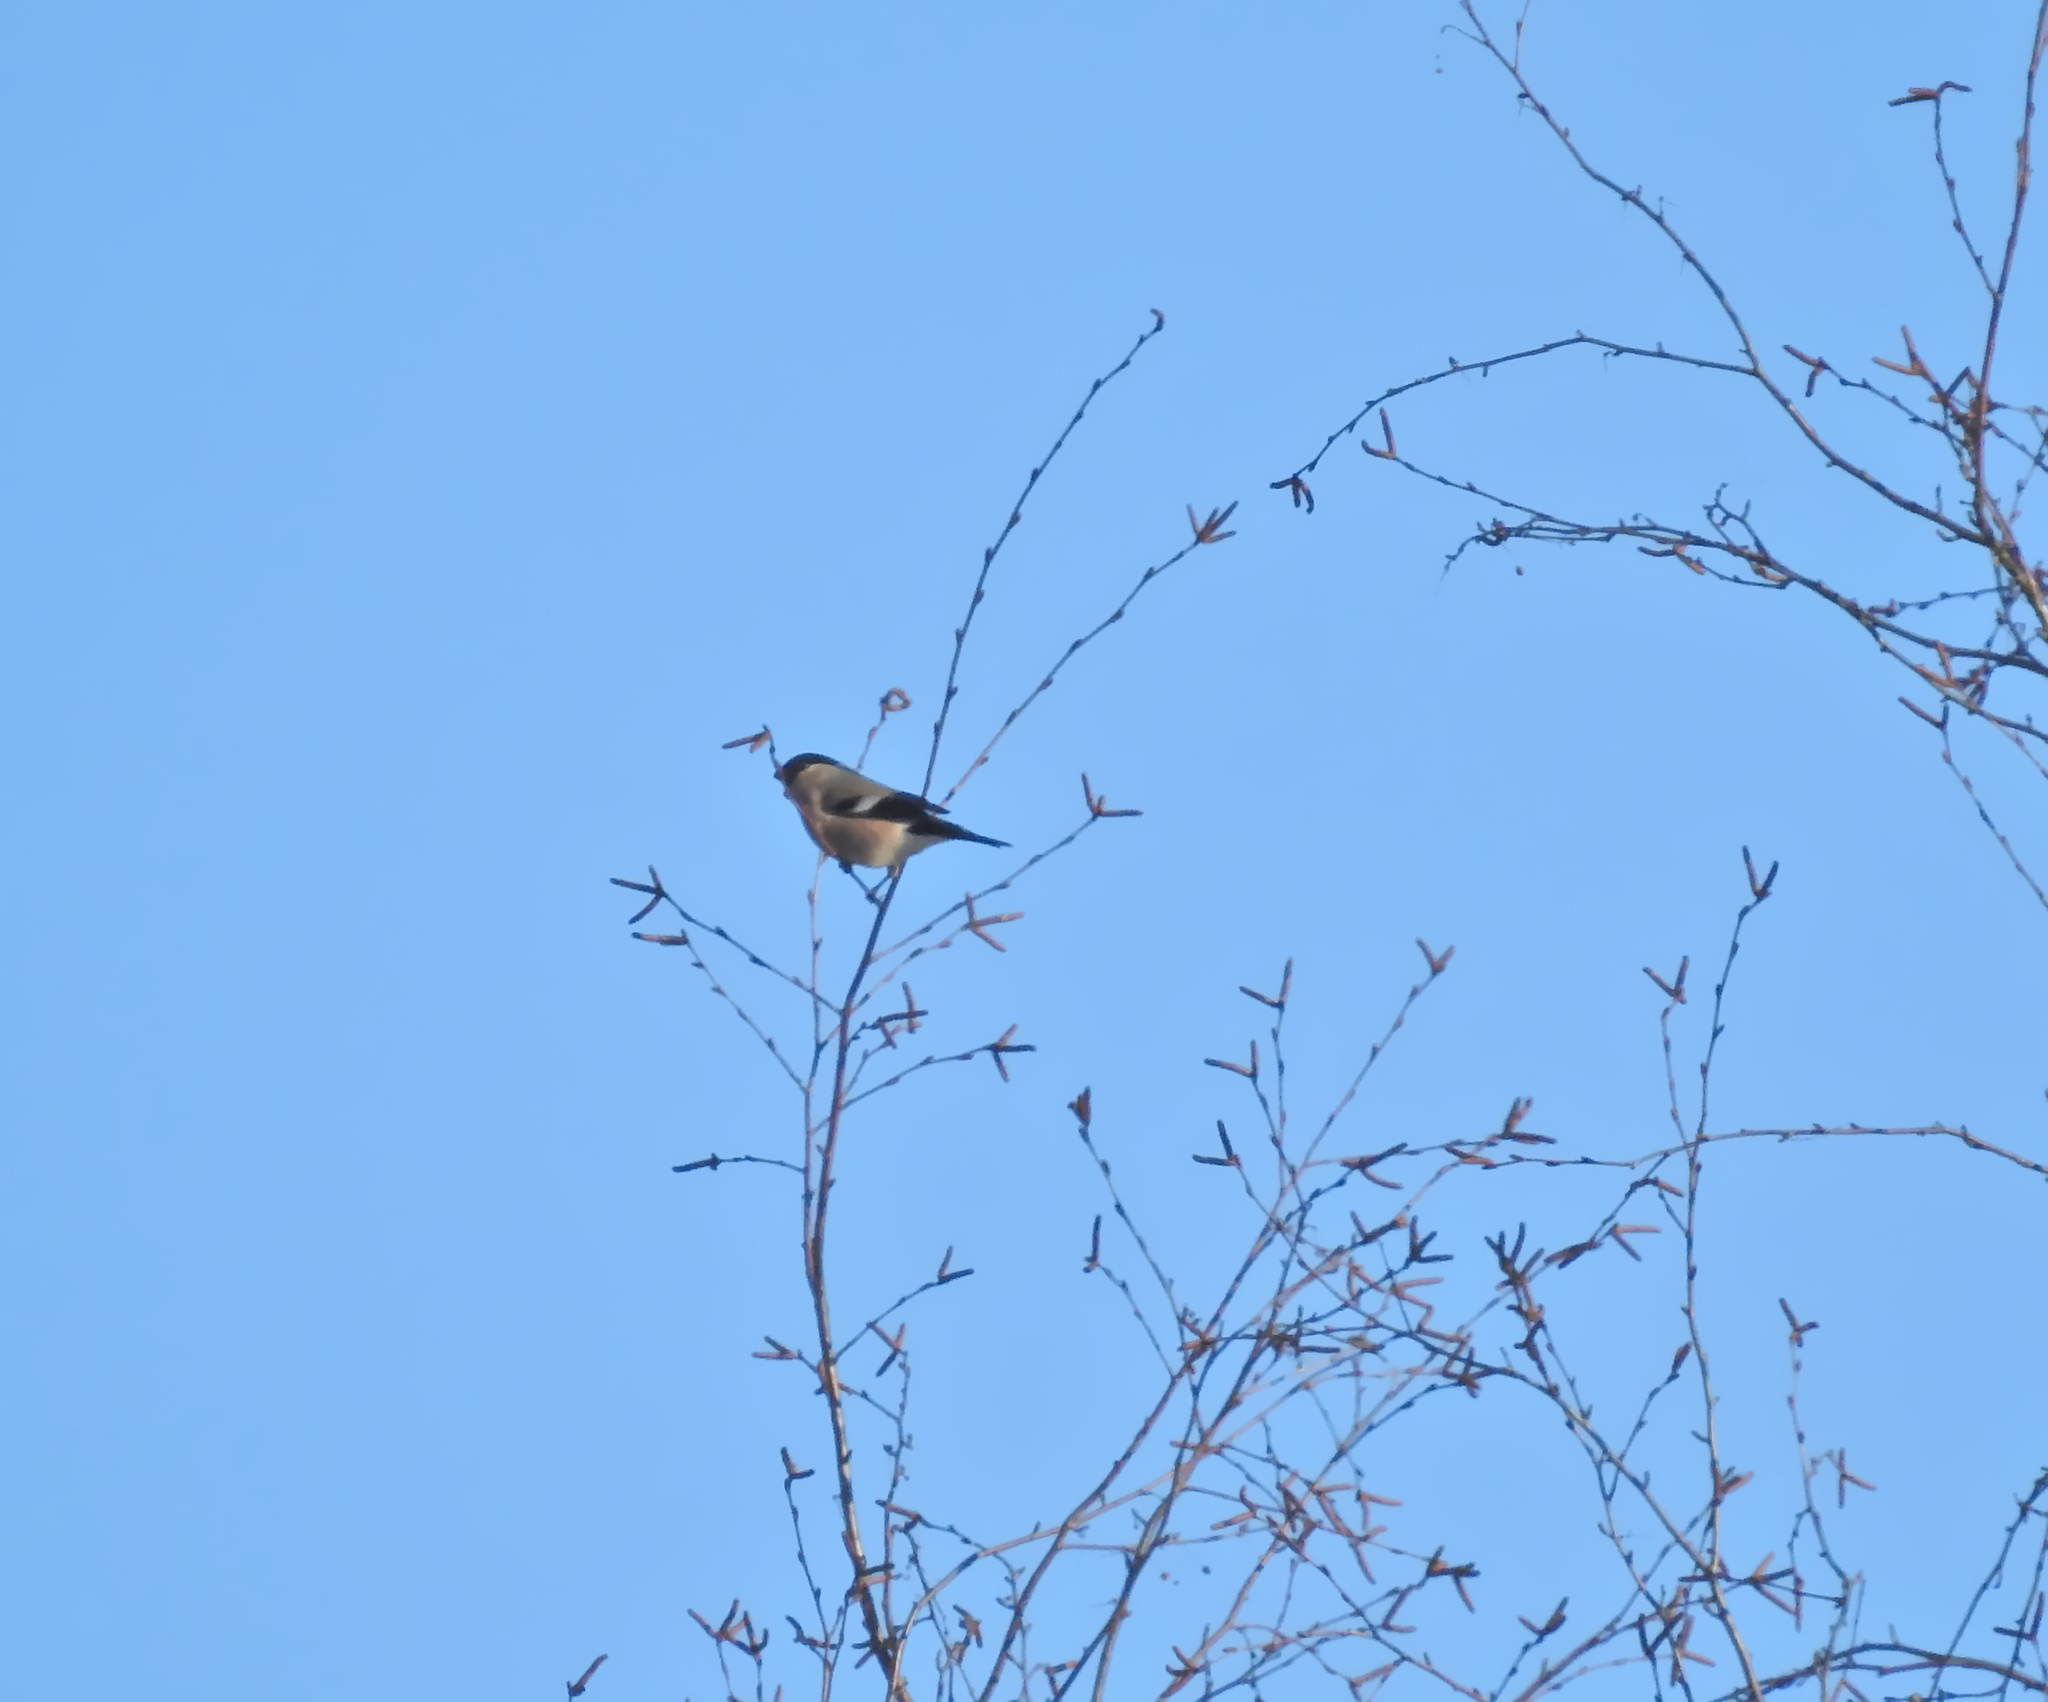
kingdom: Animalia
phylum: Chordata
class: Aves
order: Passeriformes
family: Fringillidae
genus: Pyrrhula
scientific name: Pyrrhula pyrrhula
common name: Eurasian bullfinch
